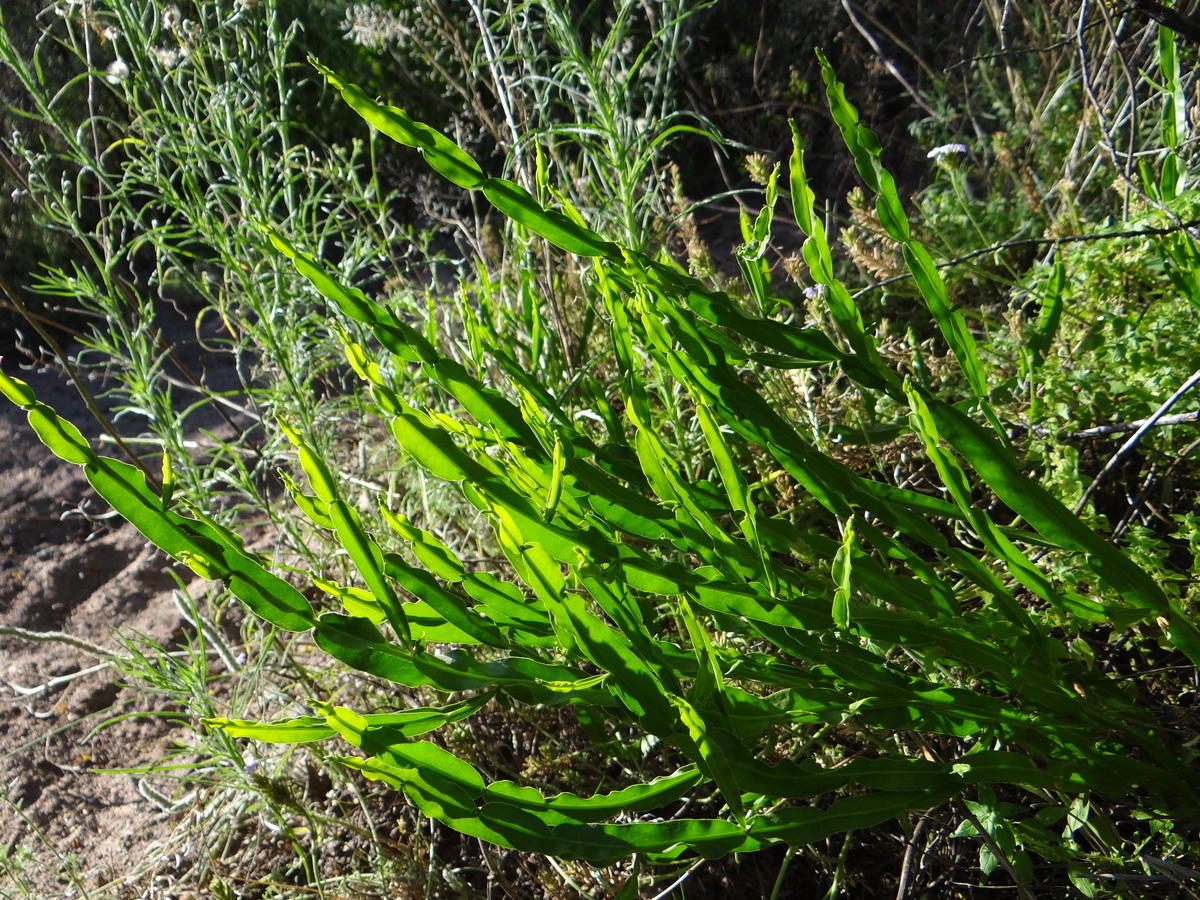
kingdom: Plantae
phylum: Tracheophyta
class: Magnoliopsida
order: Asterales
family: Asteraceae
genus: Baccharis
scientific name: Baccharis crispa
